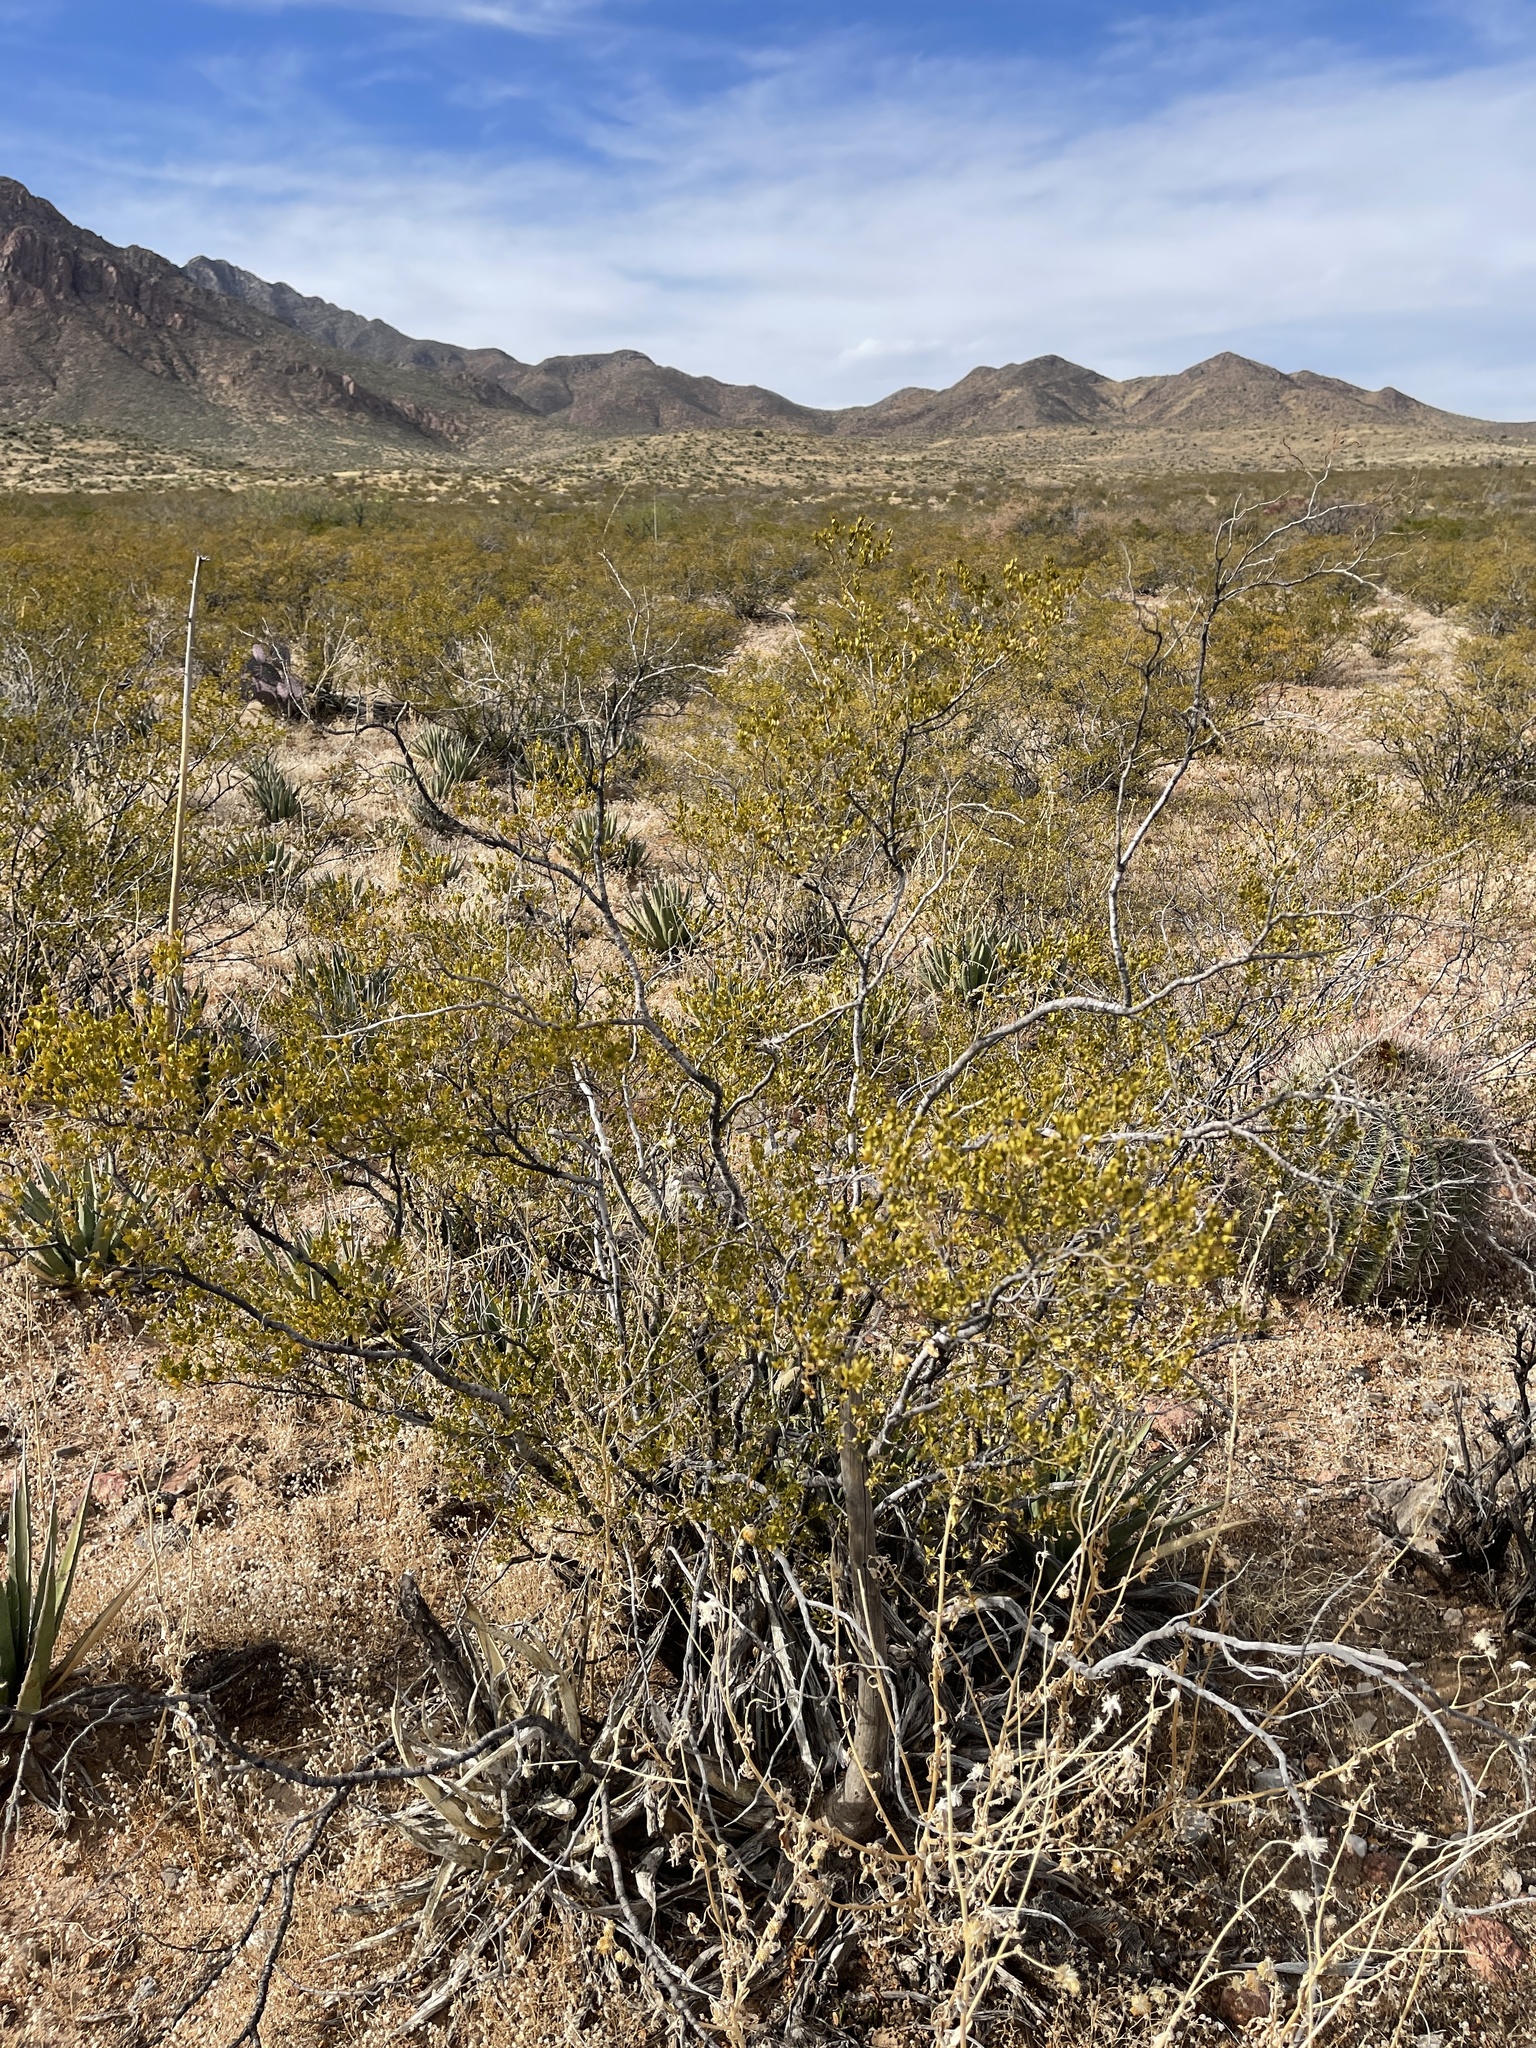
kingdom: Plantae
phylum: Tracheophyta
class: Magnoliopsida
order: Zygophyllales
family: Zygophyllaceae
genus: Larrea
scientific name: Larrea tridentata
